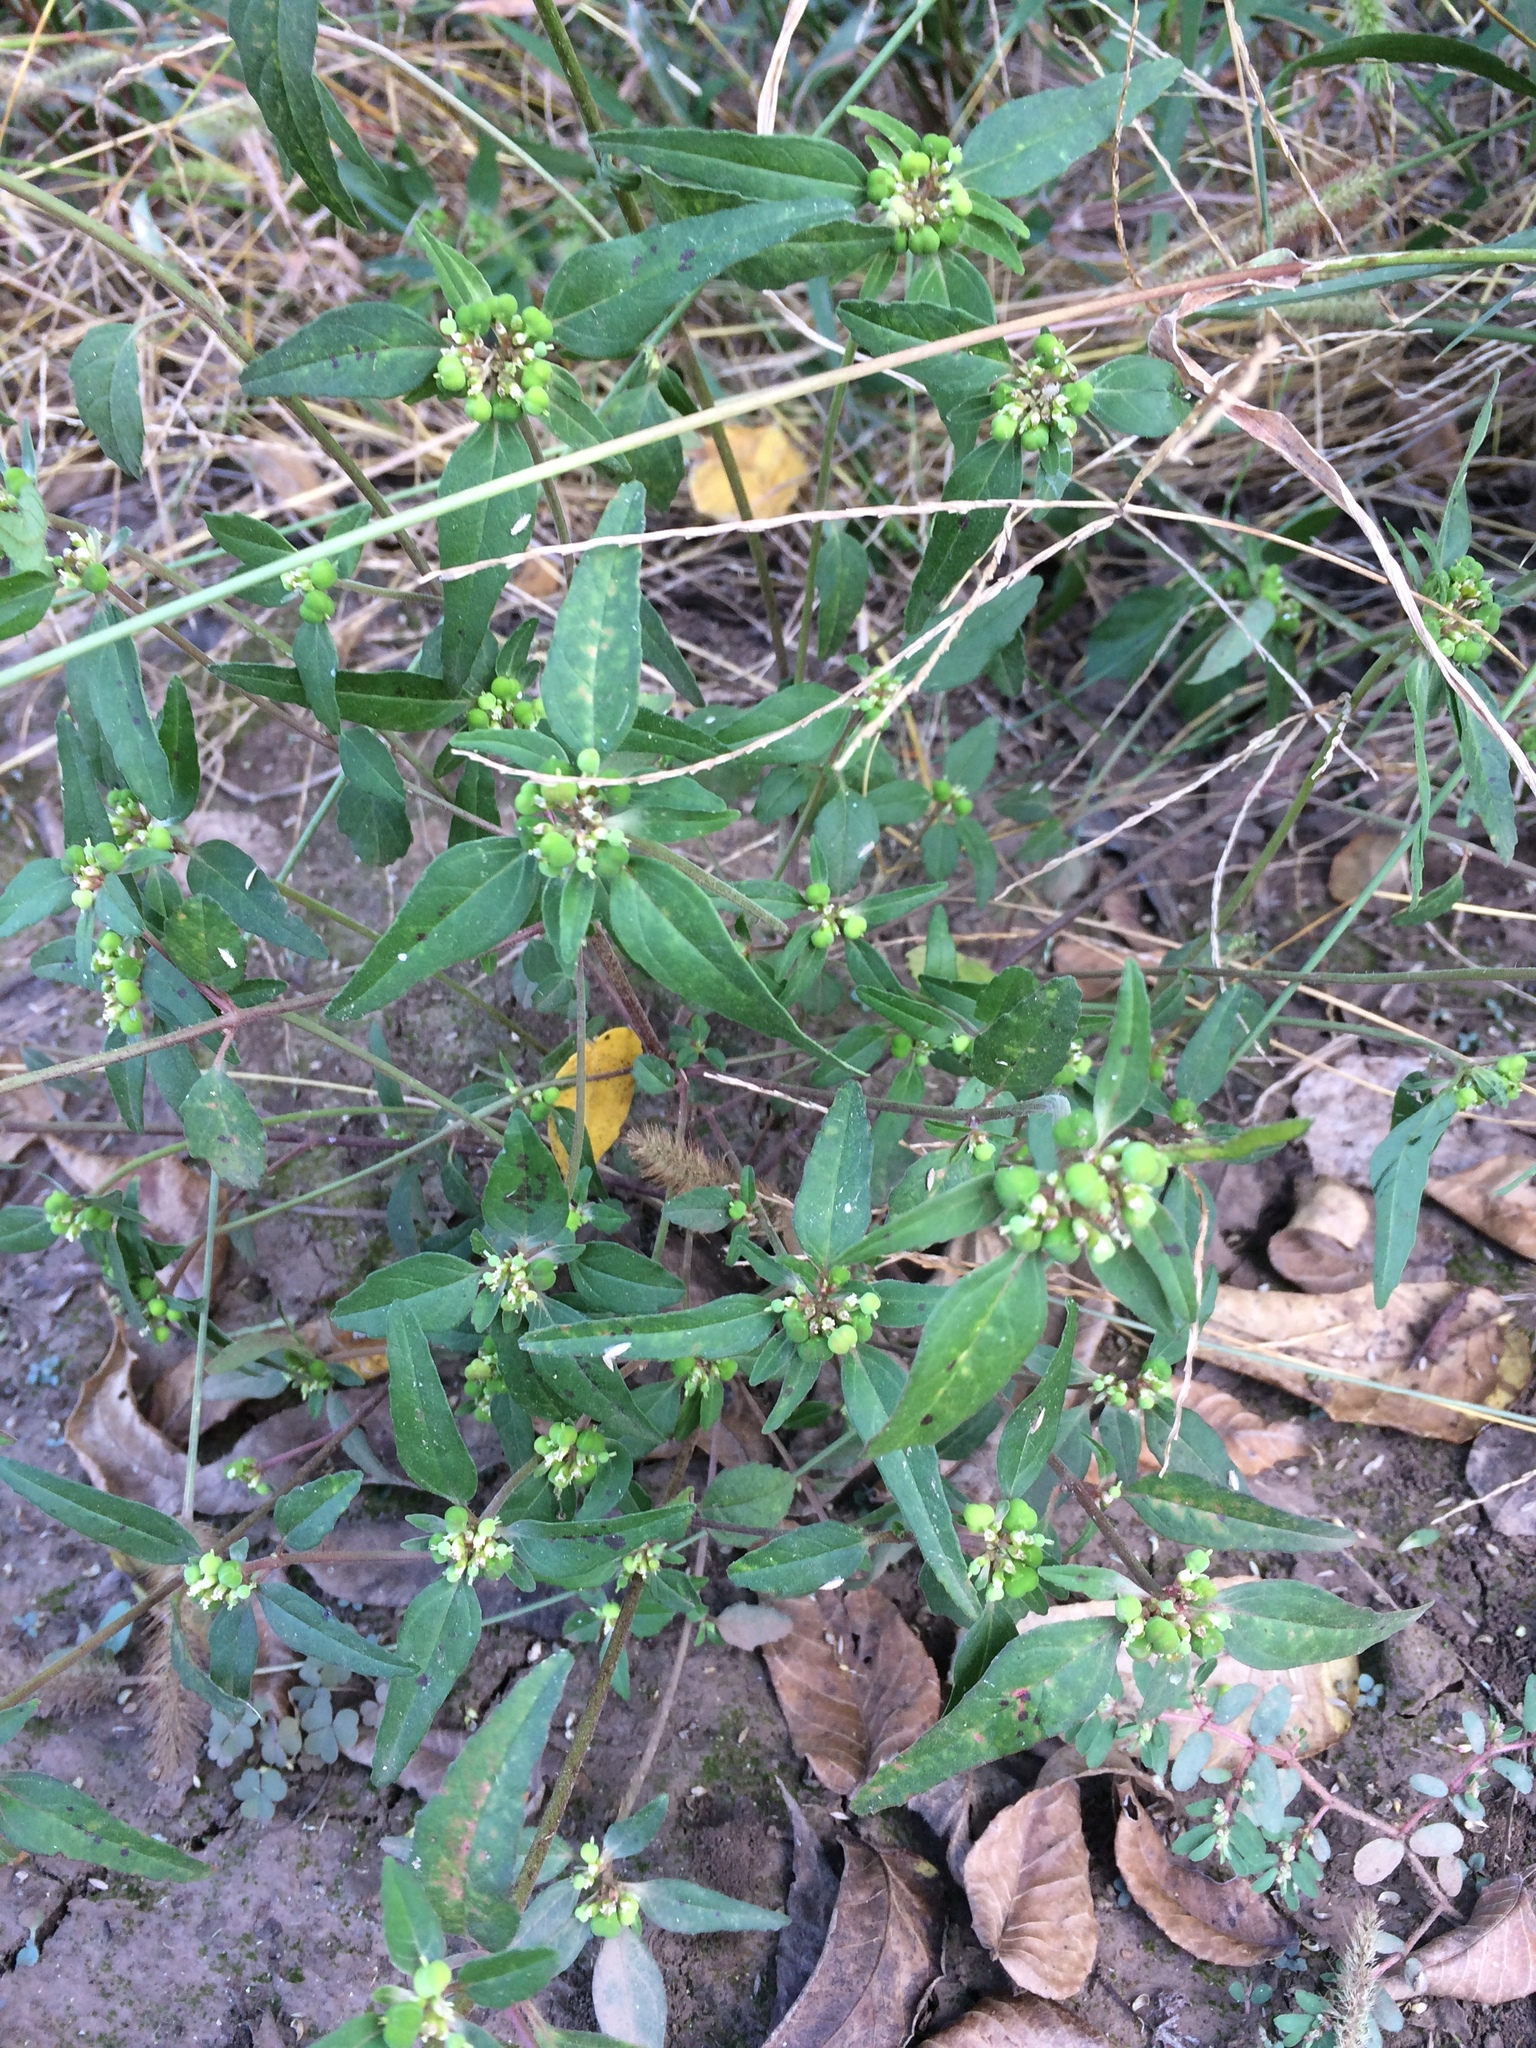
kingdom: Plantae
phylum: Tracheophyta
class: Magnoliopsida
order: Malpighiales
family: Euphorbiaceae
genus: Euphorbia
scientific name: Euphorbia dentata
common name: Dentate spurge
